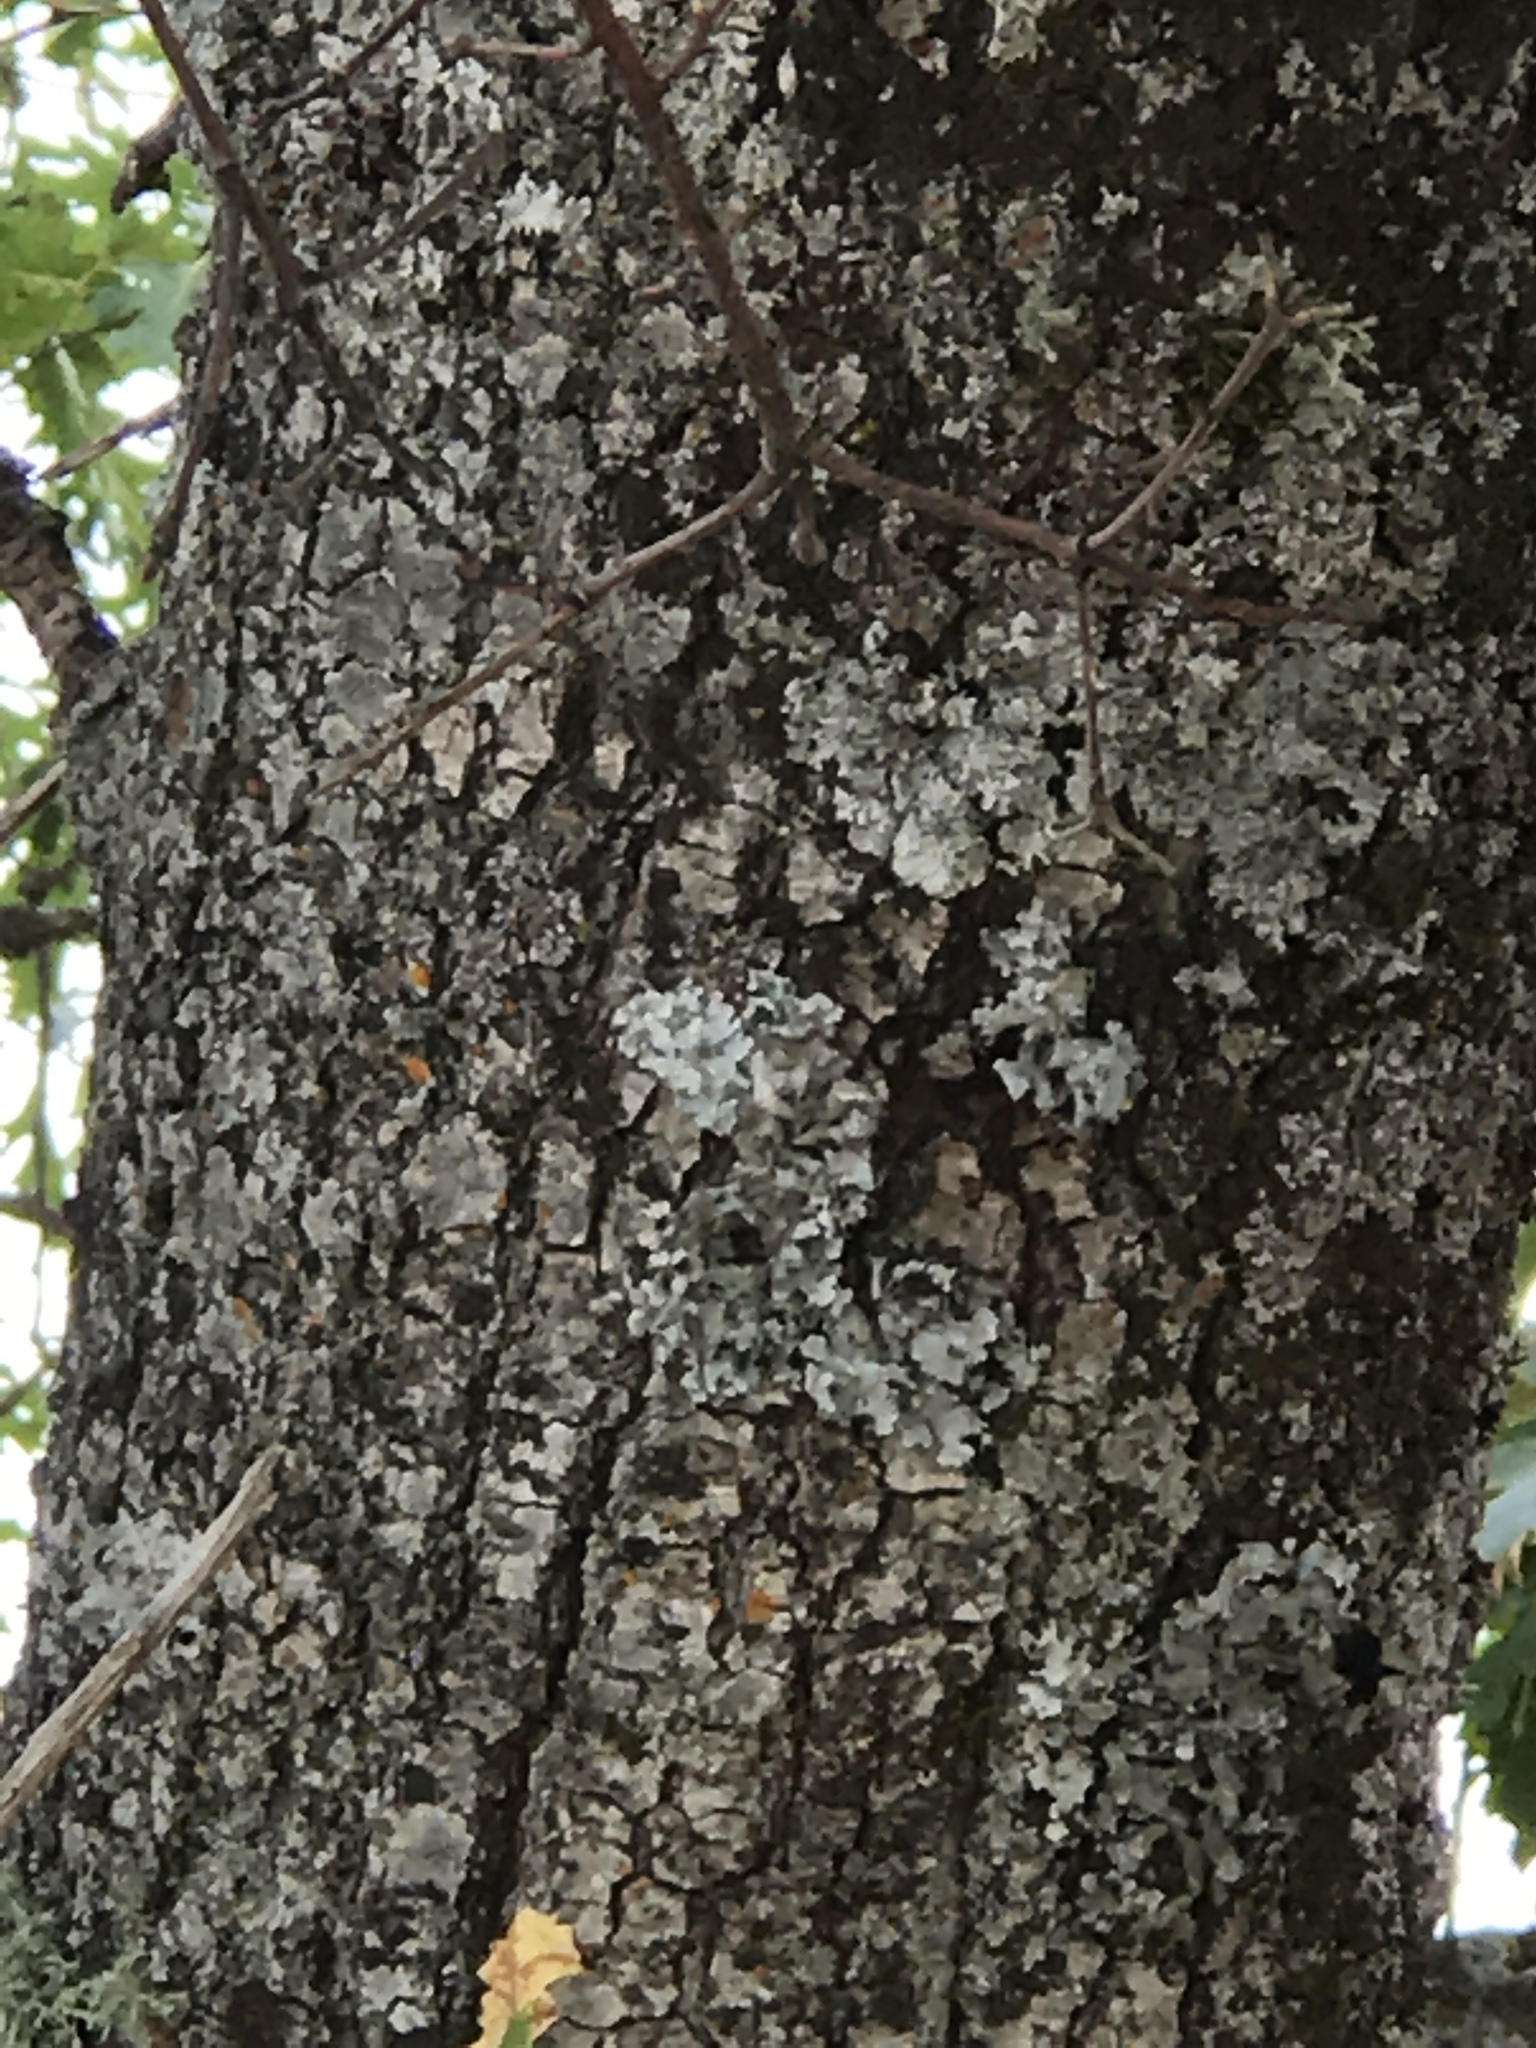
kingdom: Plantae
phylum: Tracheophyta
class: Magnoliopsida
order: Fagales
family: Fagaceae
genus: Quercus
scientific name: Quercus kelloggii
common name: California black oak
